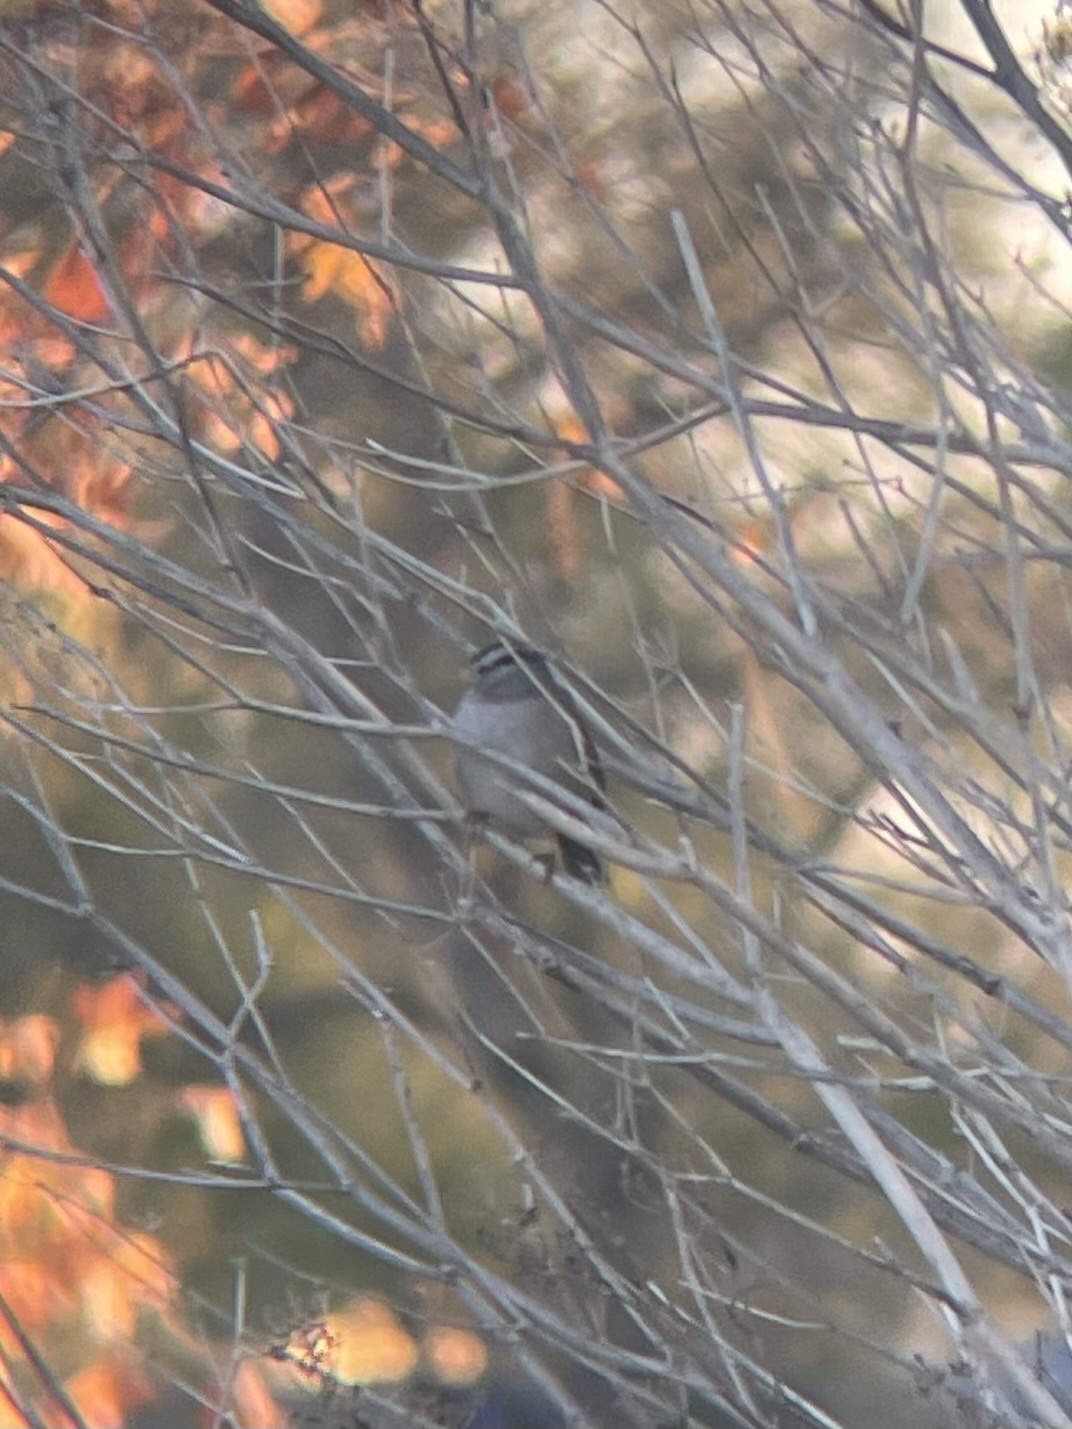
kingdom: Animalia
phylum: Chordata
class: Aves
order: Passeriformes
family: Passerellidae
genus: Zonotrichia
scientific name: Zonotrichia leucophrys
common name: White-crowned sparrow
